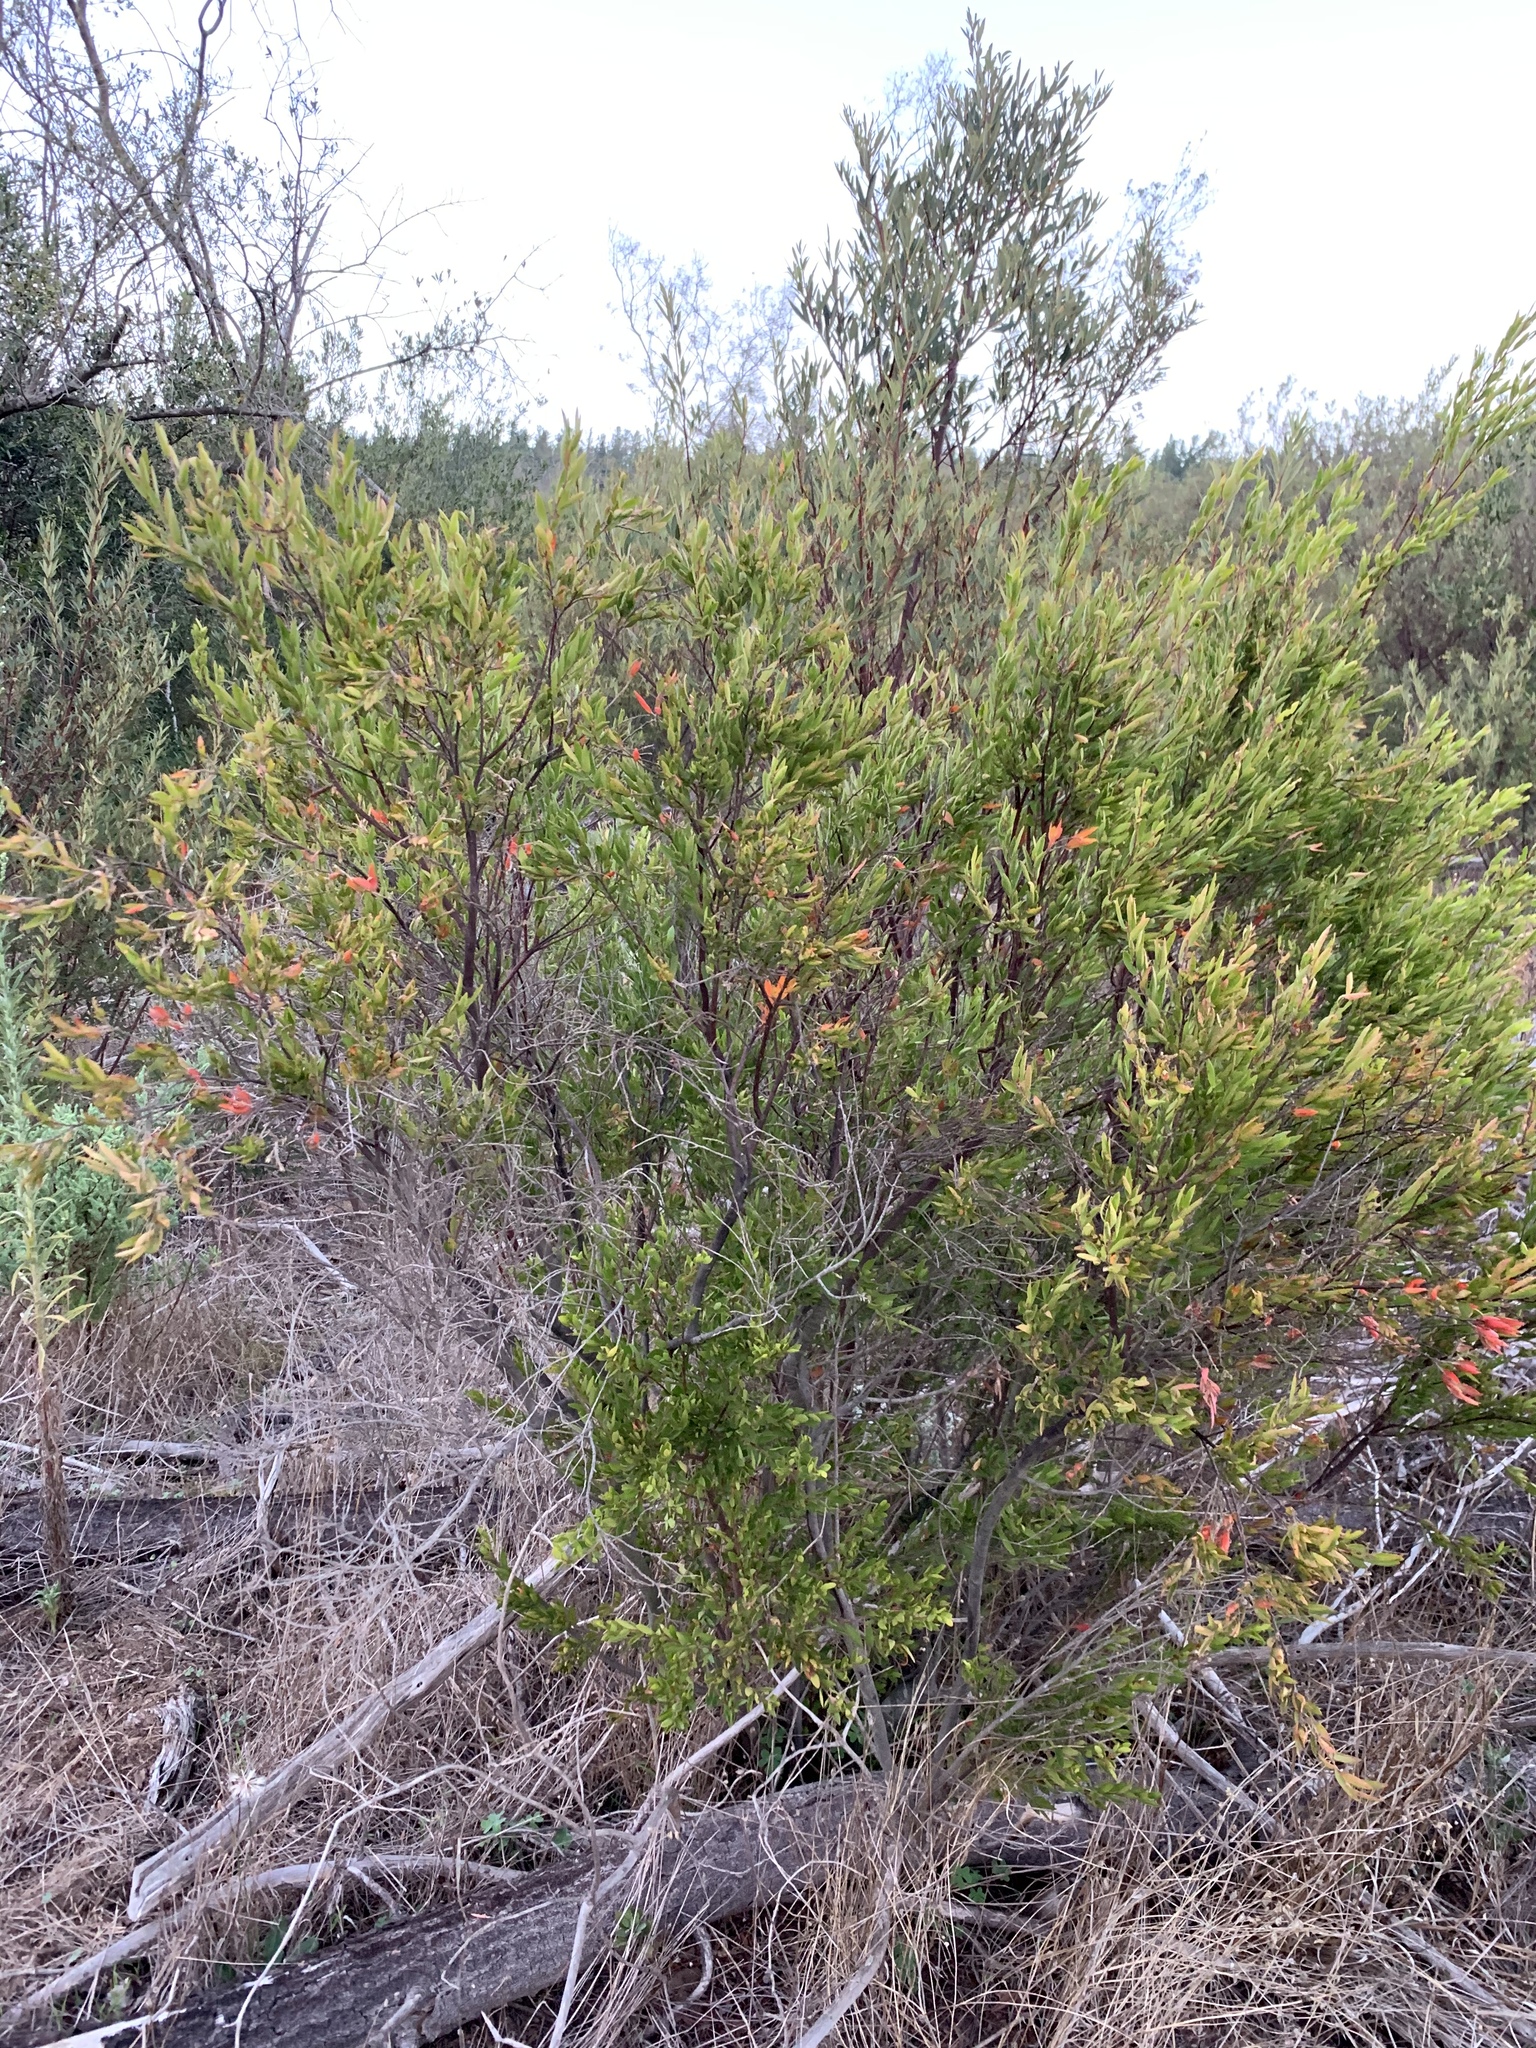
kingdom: Plantae
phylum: Tracheophyta
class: Magnoliopsida
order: Ericales
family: Ebenaceae
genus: Diospyros
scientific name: Diospyros glabra
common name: Fynbos star apple
